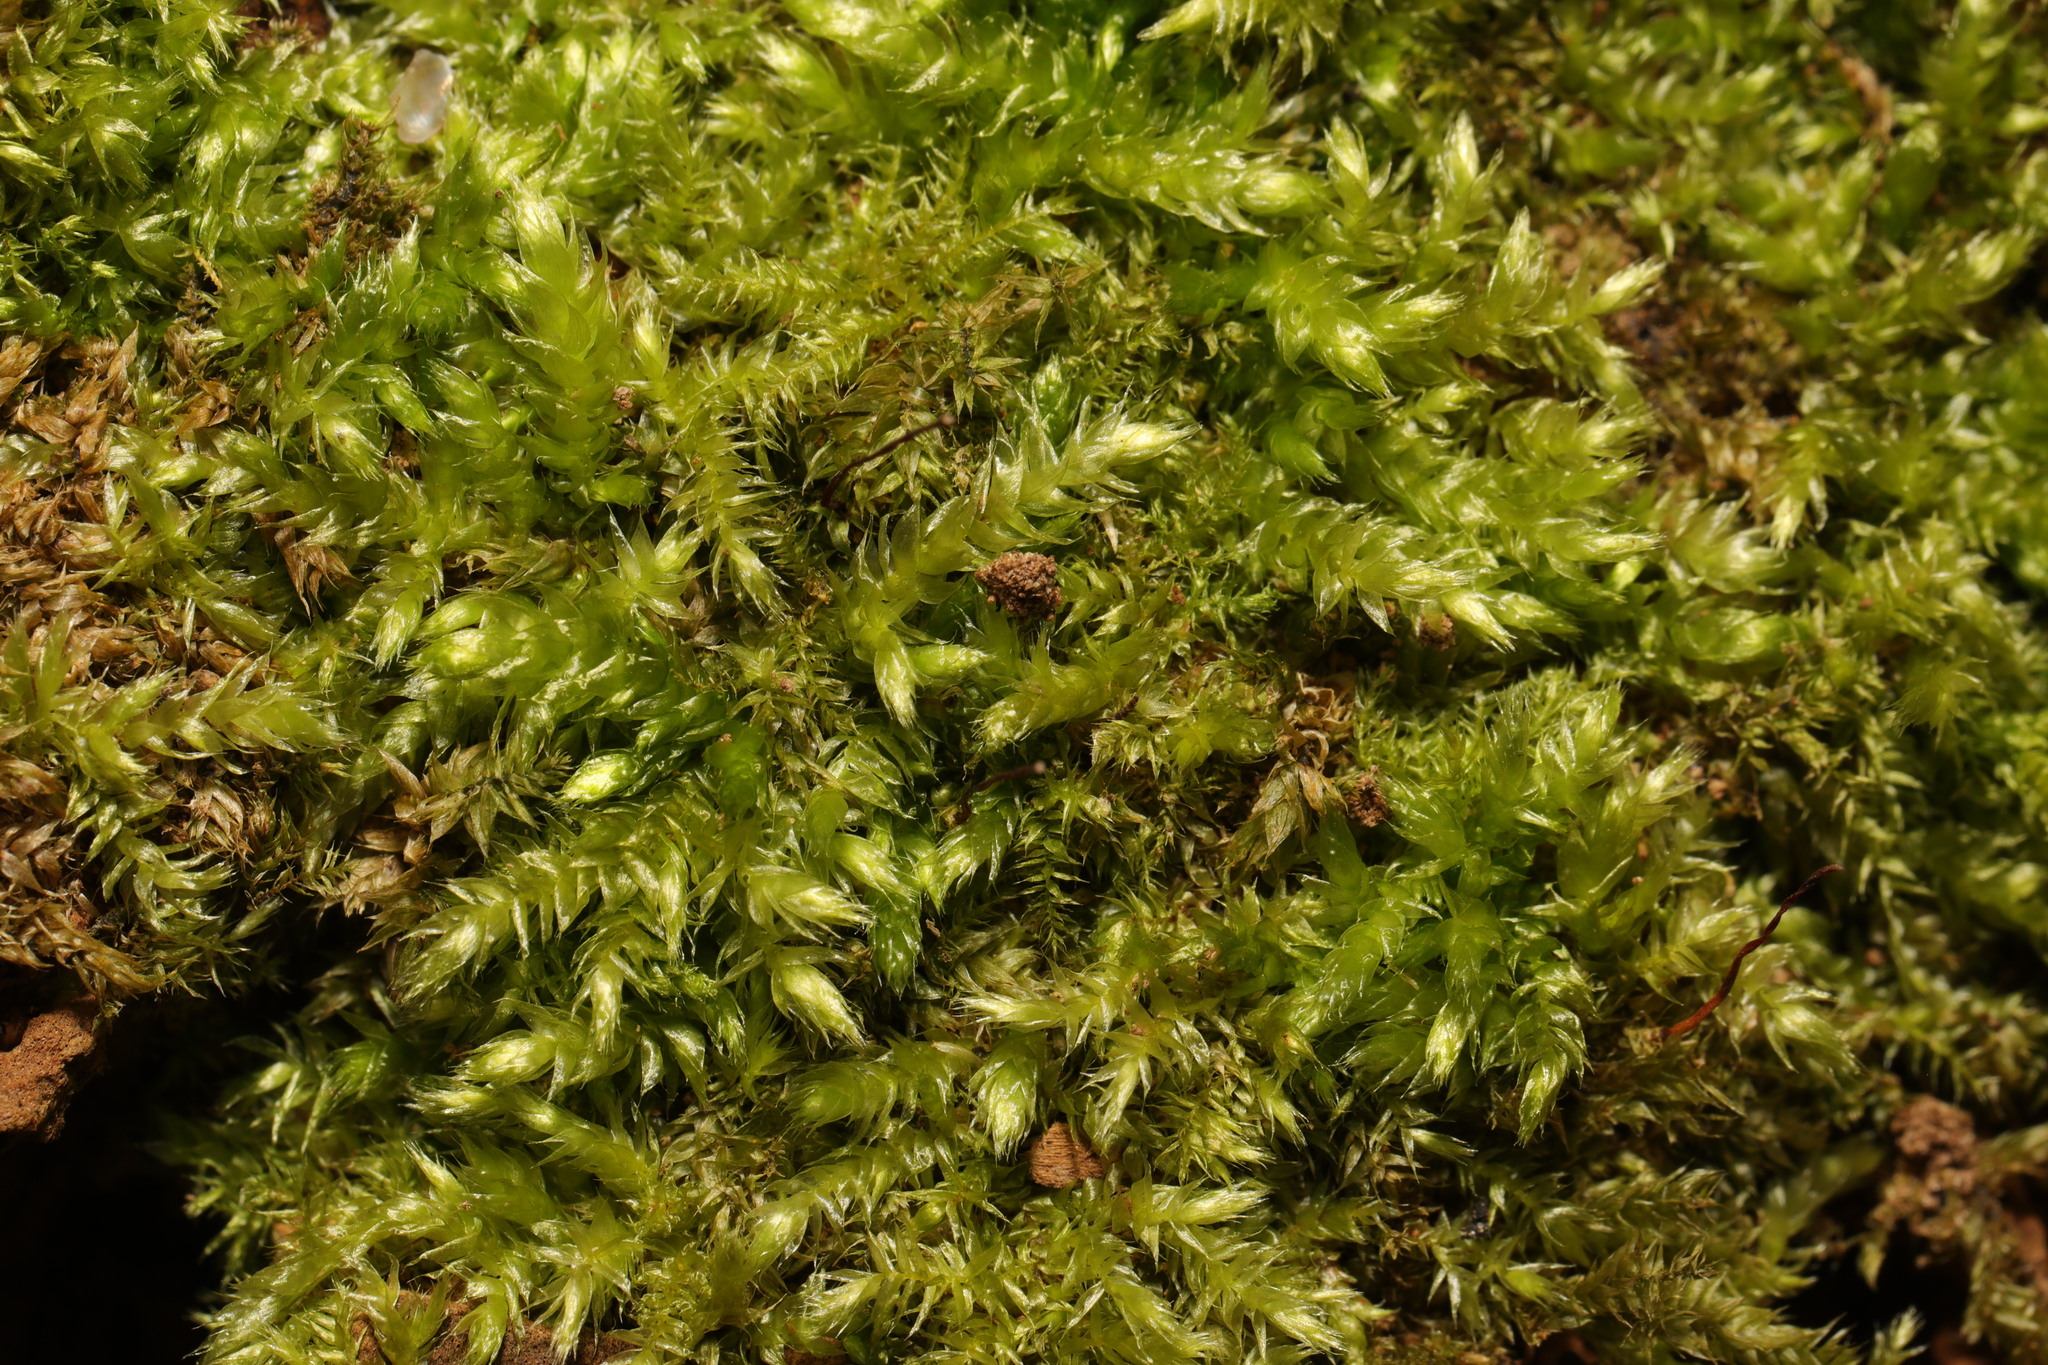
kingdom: Plantae
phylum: Bryophyta
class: Bryopsida
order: Hypnales
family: Brachytheciaceae
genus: Brachythecium
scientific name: Brachythecium rutabulum
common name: Rough-stalked feather-moss
